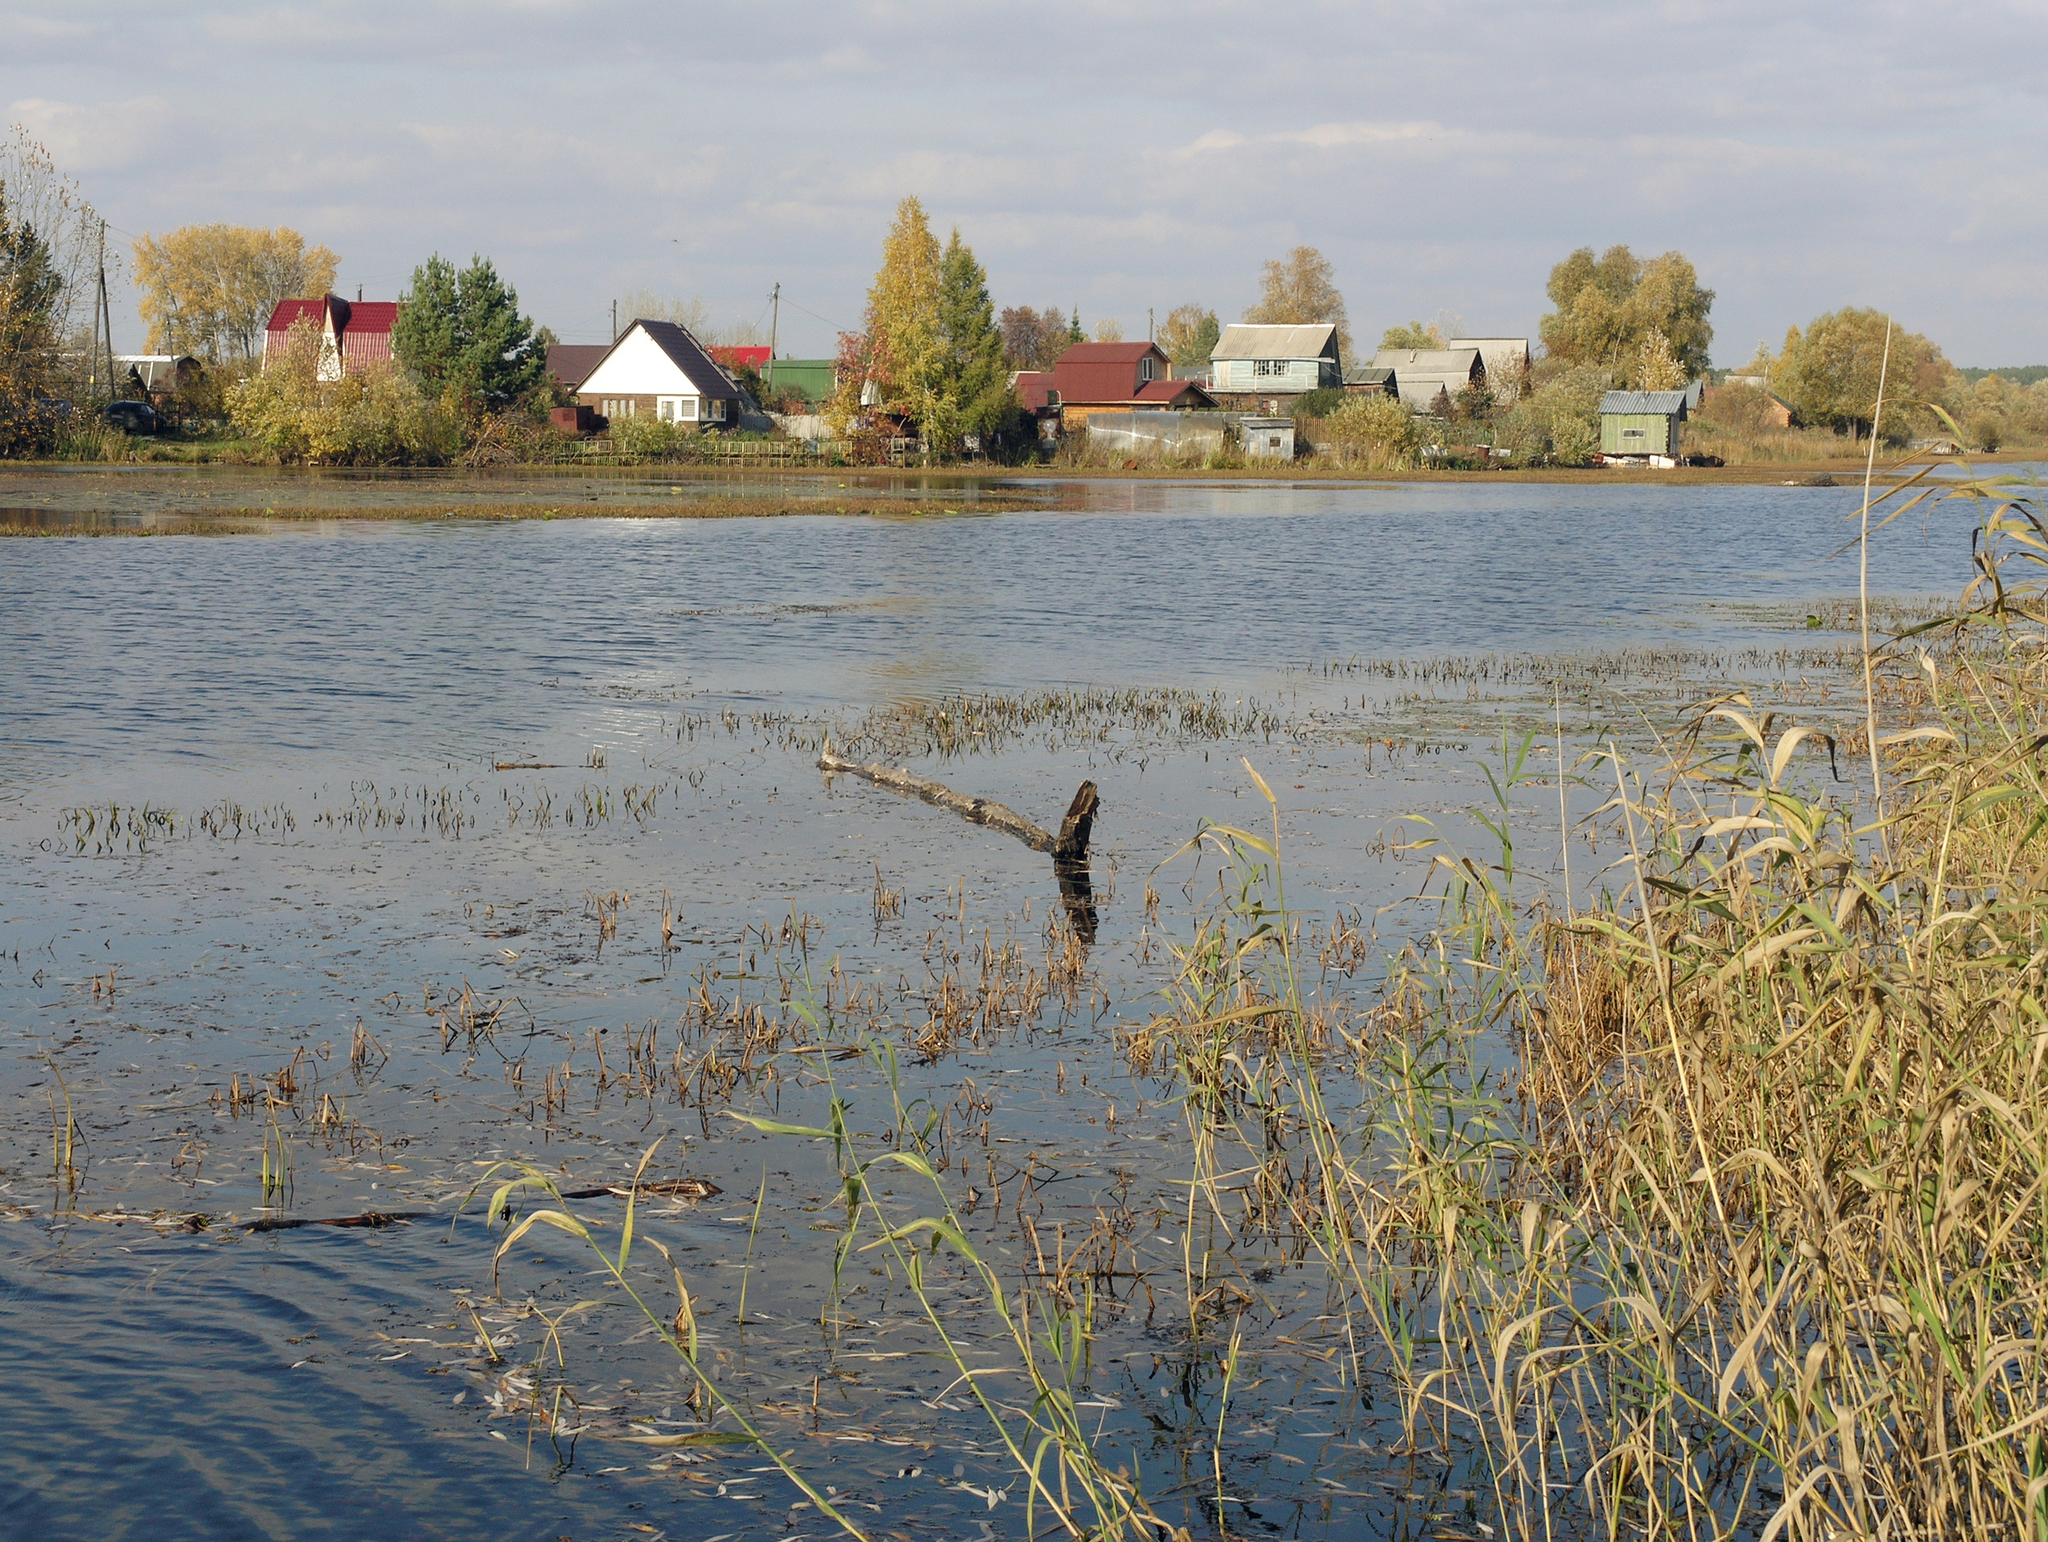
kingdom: Plantae
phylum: Tracheophyta
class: Liliopsida
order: Poales
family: Poaceae
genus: Phragmites
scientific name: Phragmites australis
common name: Common reed
